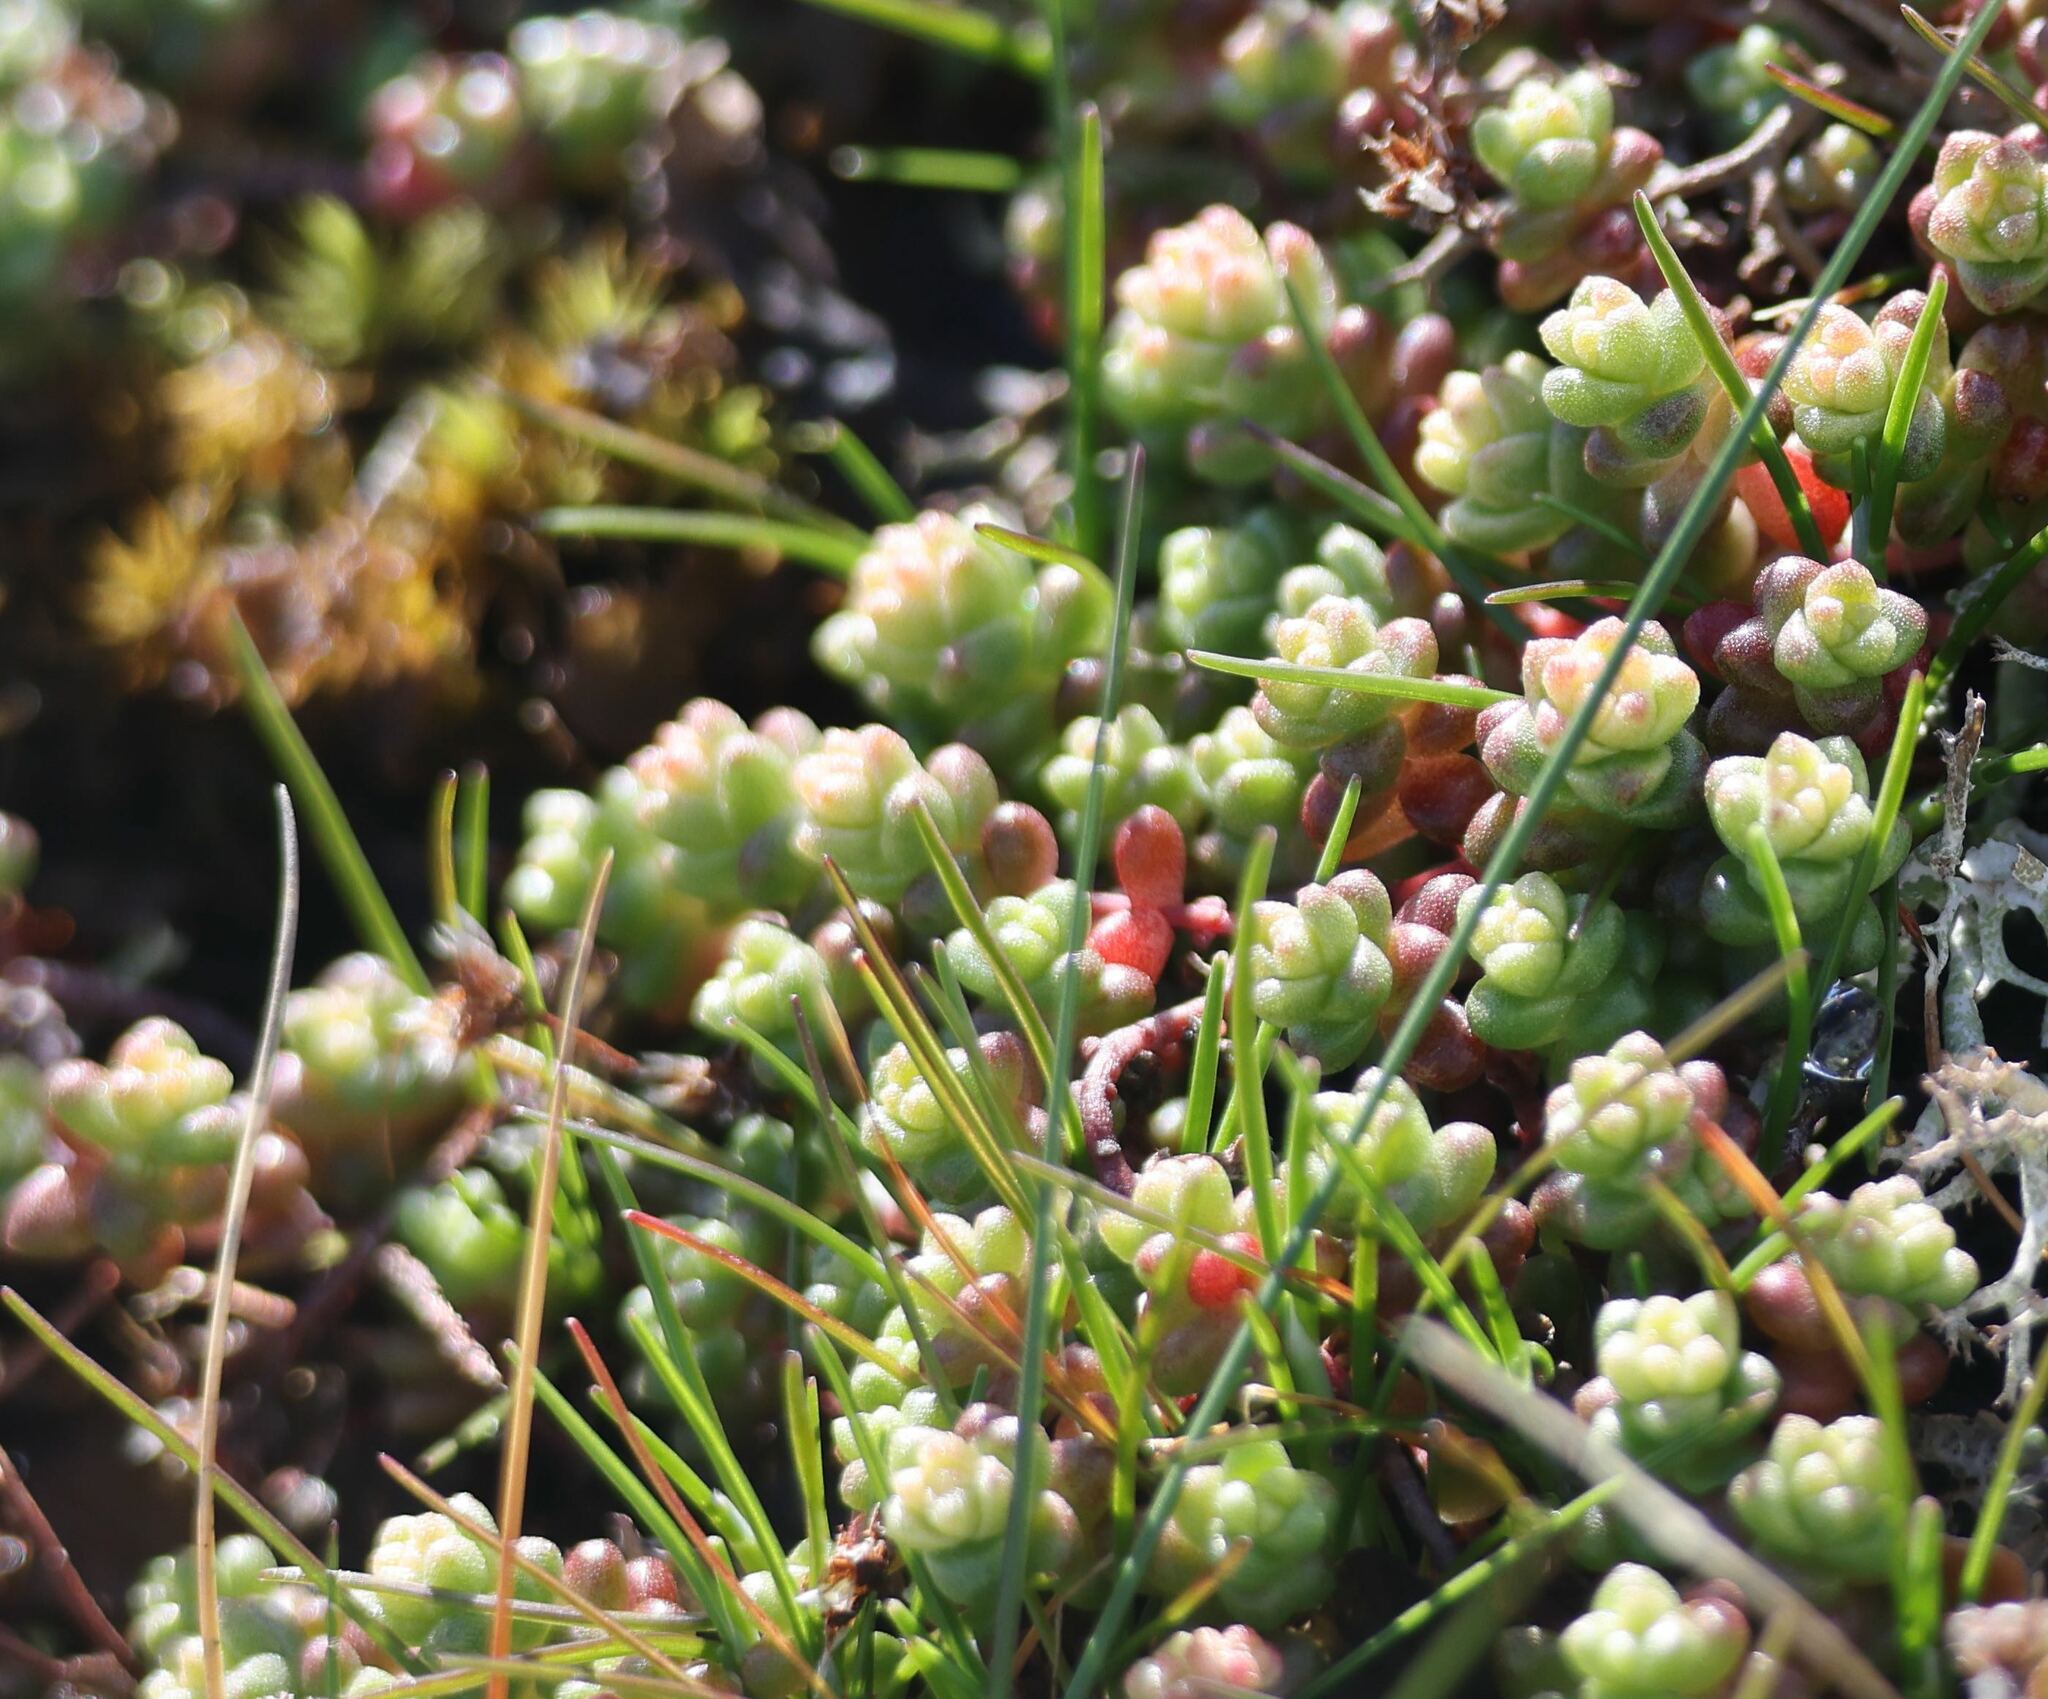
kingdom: Plantae
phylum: Tracheophyta
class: Magnoliopsida
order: Saxifragales
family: Crassulaceae
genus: Sedum
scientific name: Sedum anglicum
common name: English stonecrop
